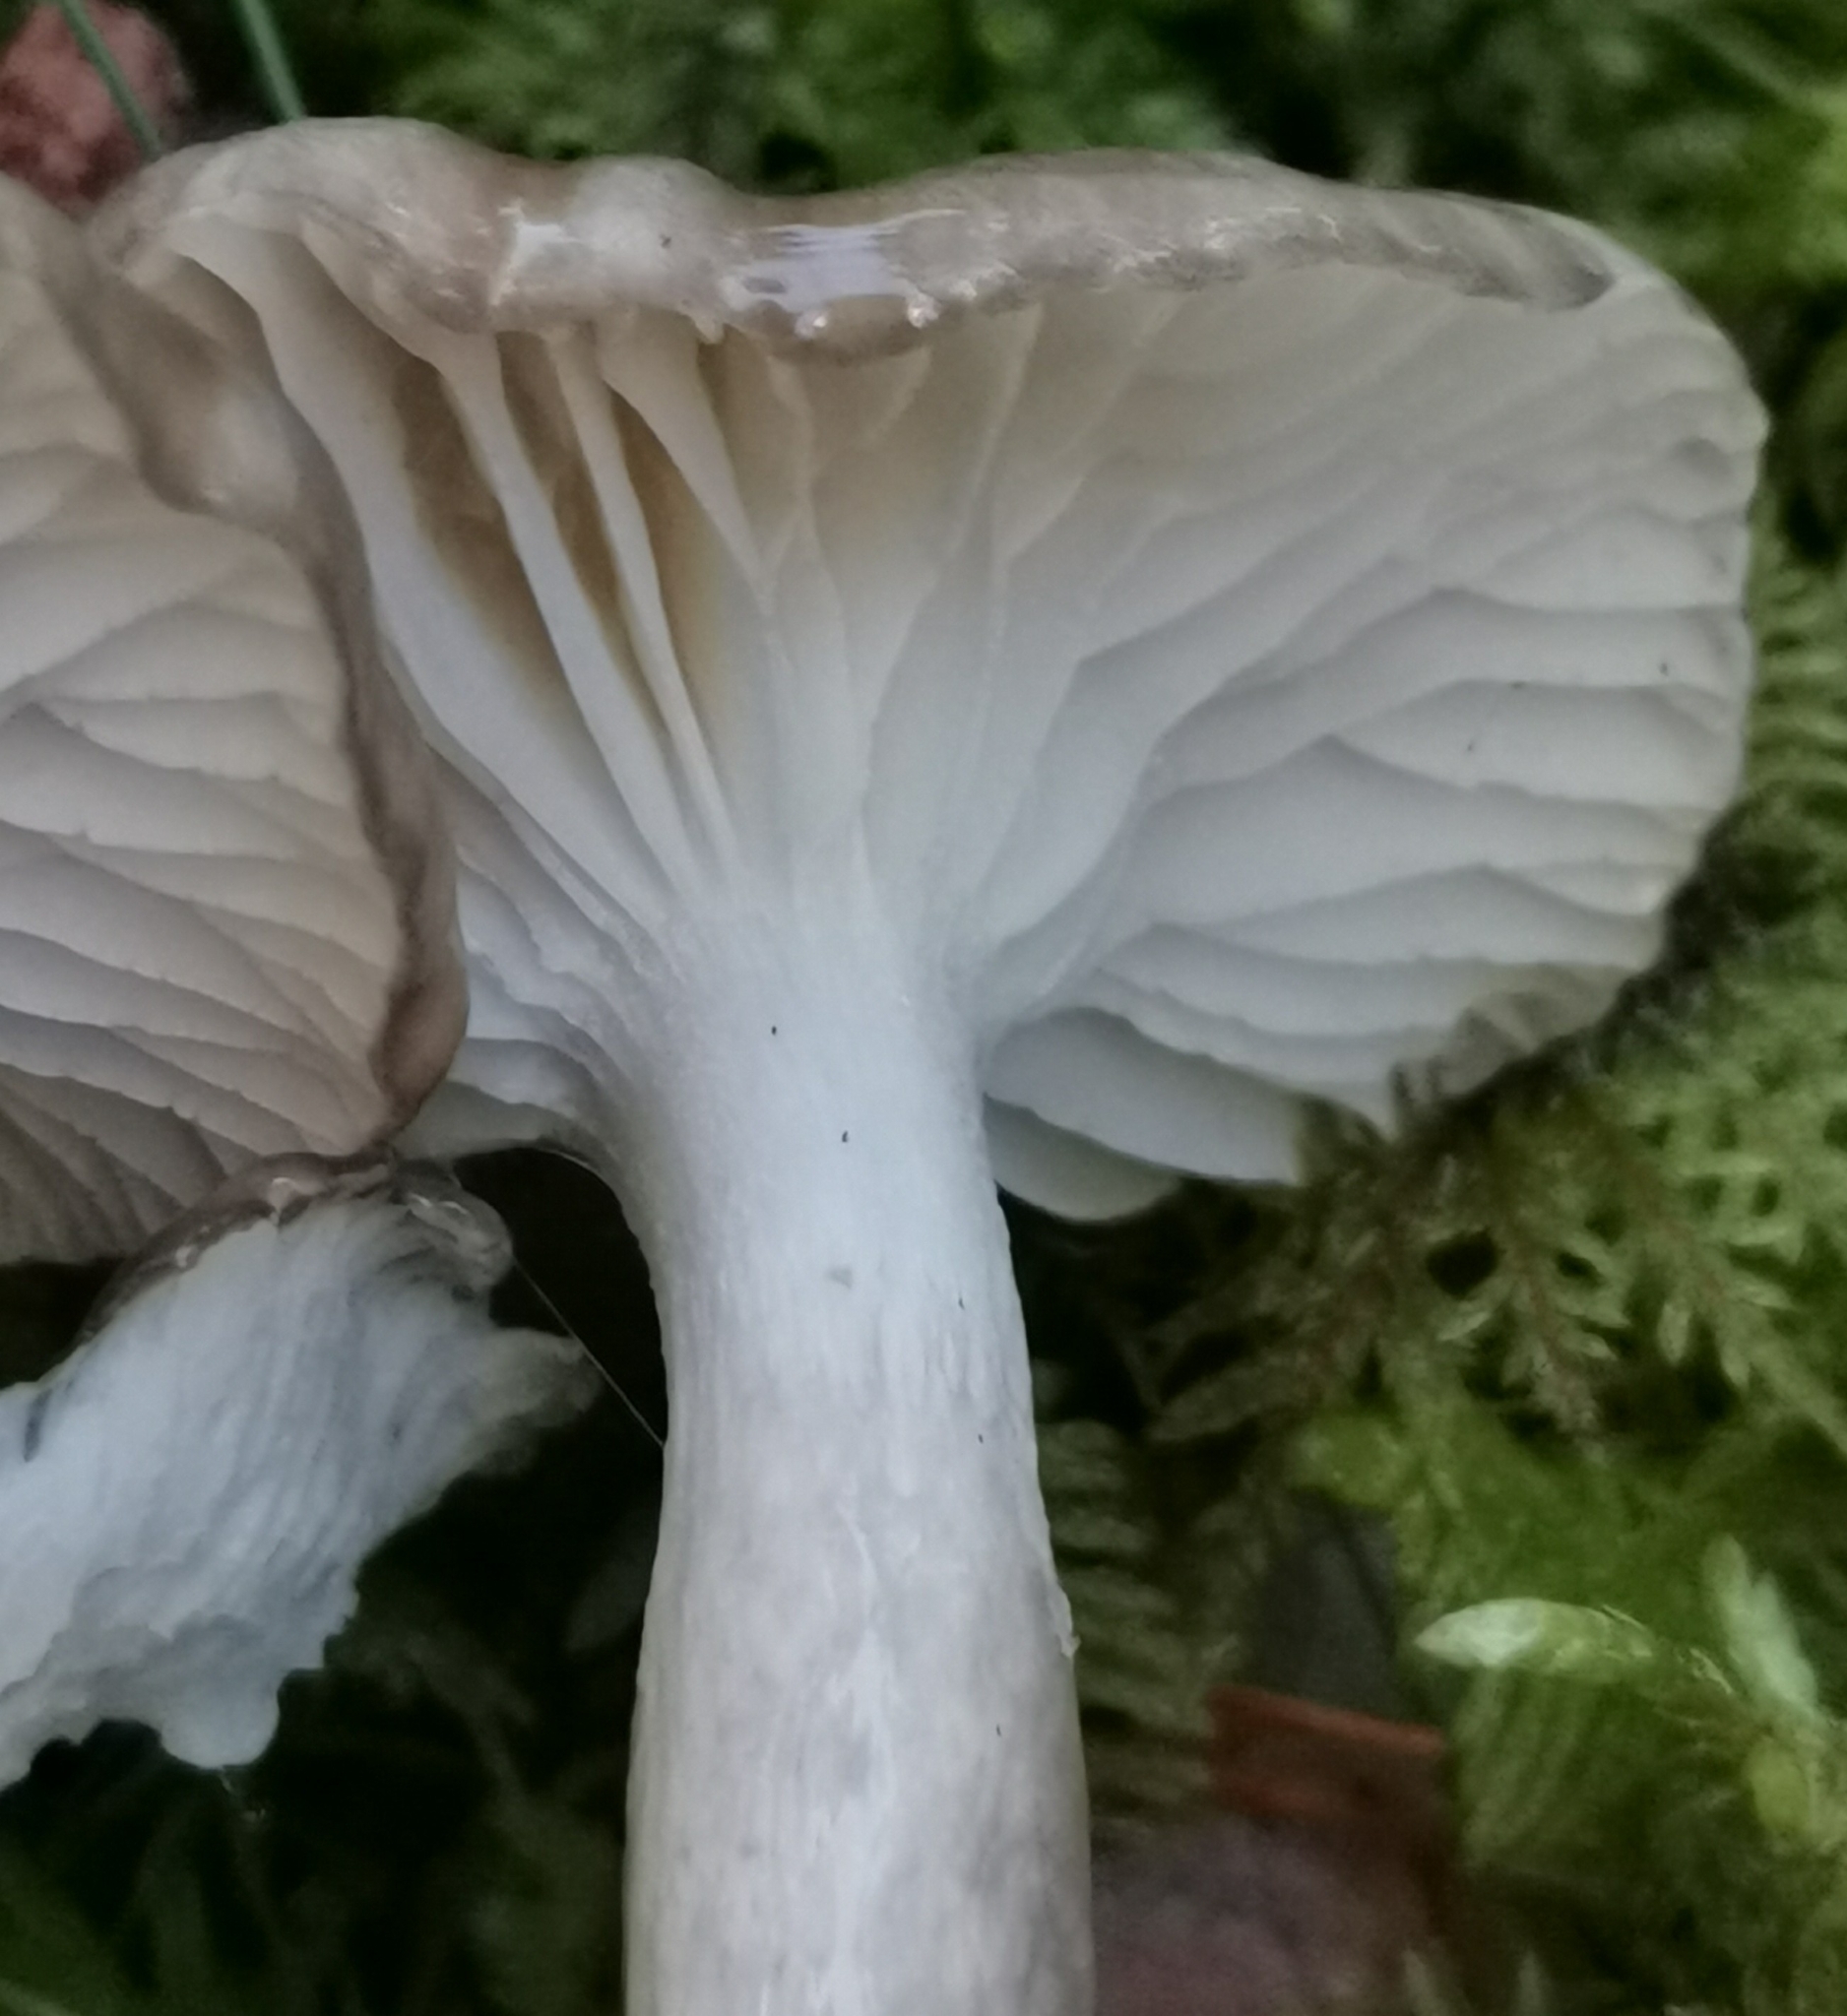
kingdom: Fungi
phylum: Basidiomycota
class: Agaricomycetes
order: Agaricales
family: Hygrophoraceae
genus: Hygrophorus
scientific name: Hygrophorus olivaceoalbus
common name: Olive wax cap
